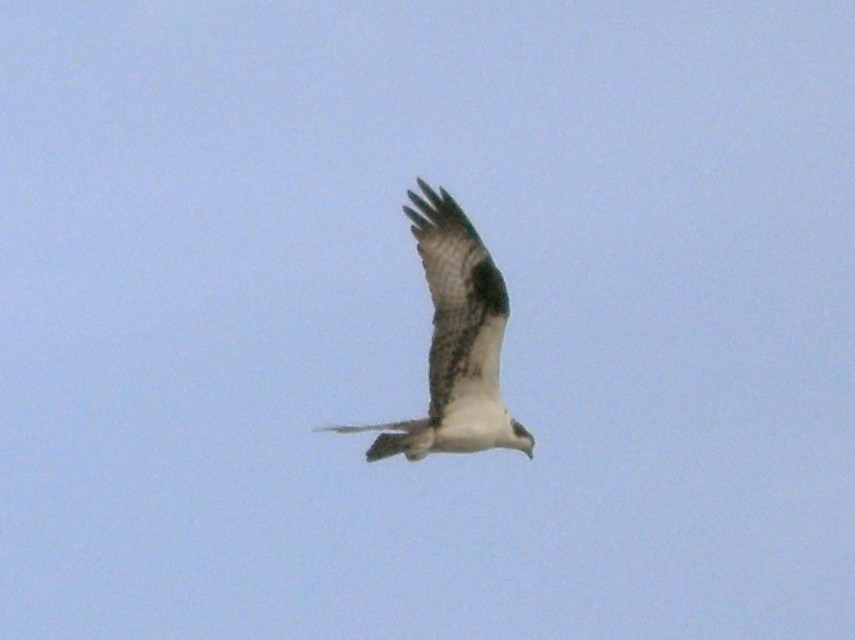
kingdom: Animalia
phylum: Chordata
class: Aves
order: Accipitriformes
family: Pandionidae
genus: Pandion
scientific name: Pandion haliaetus
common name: Osprey
